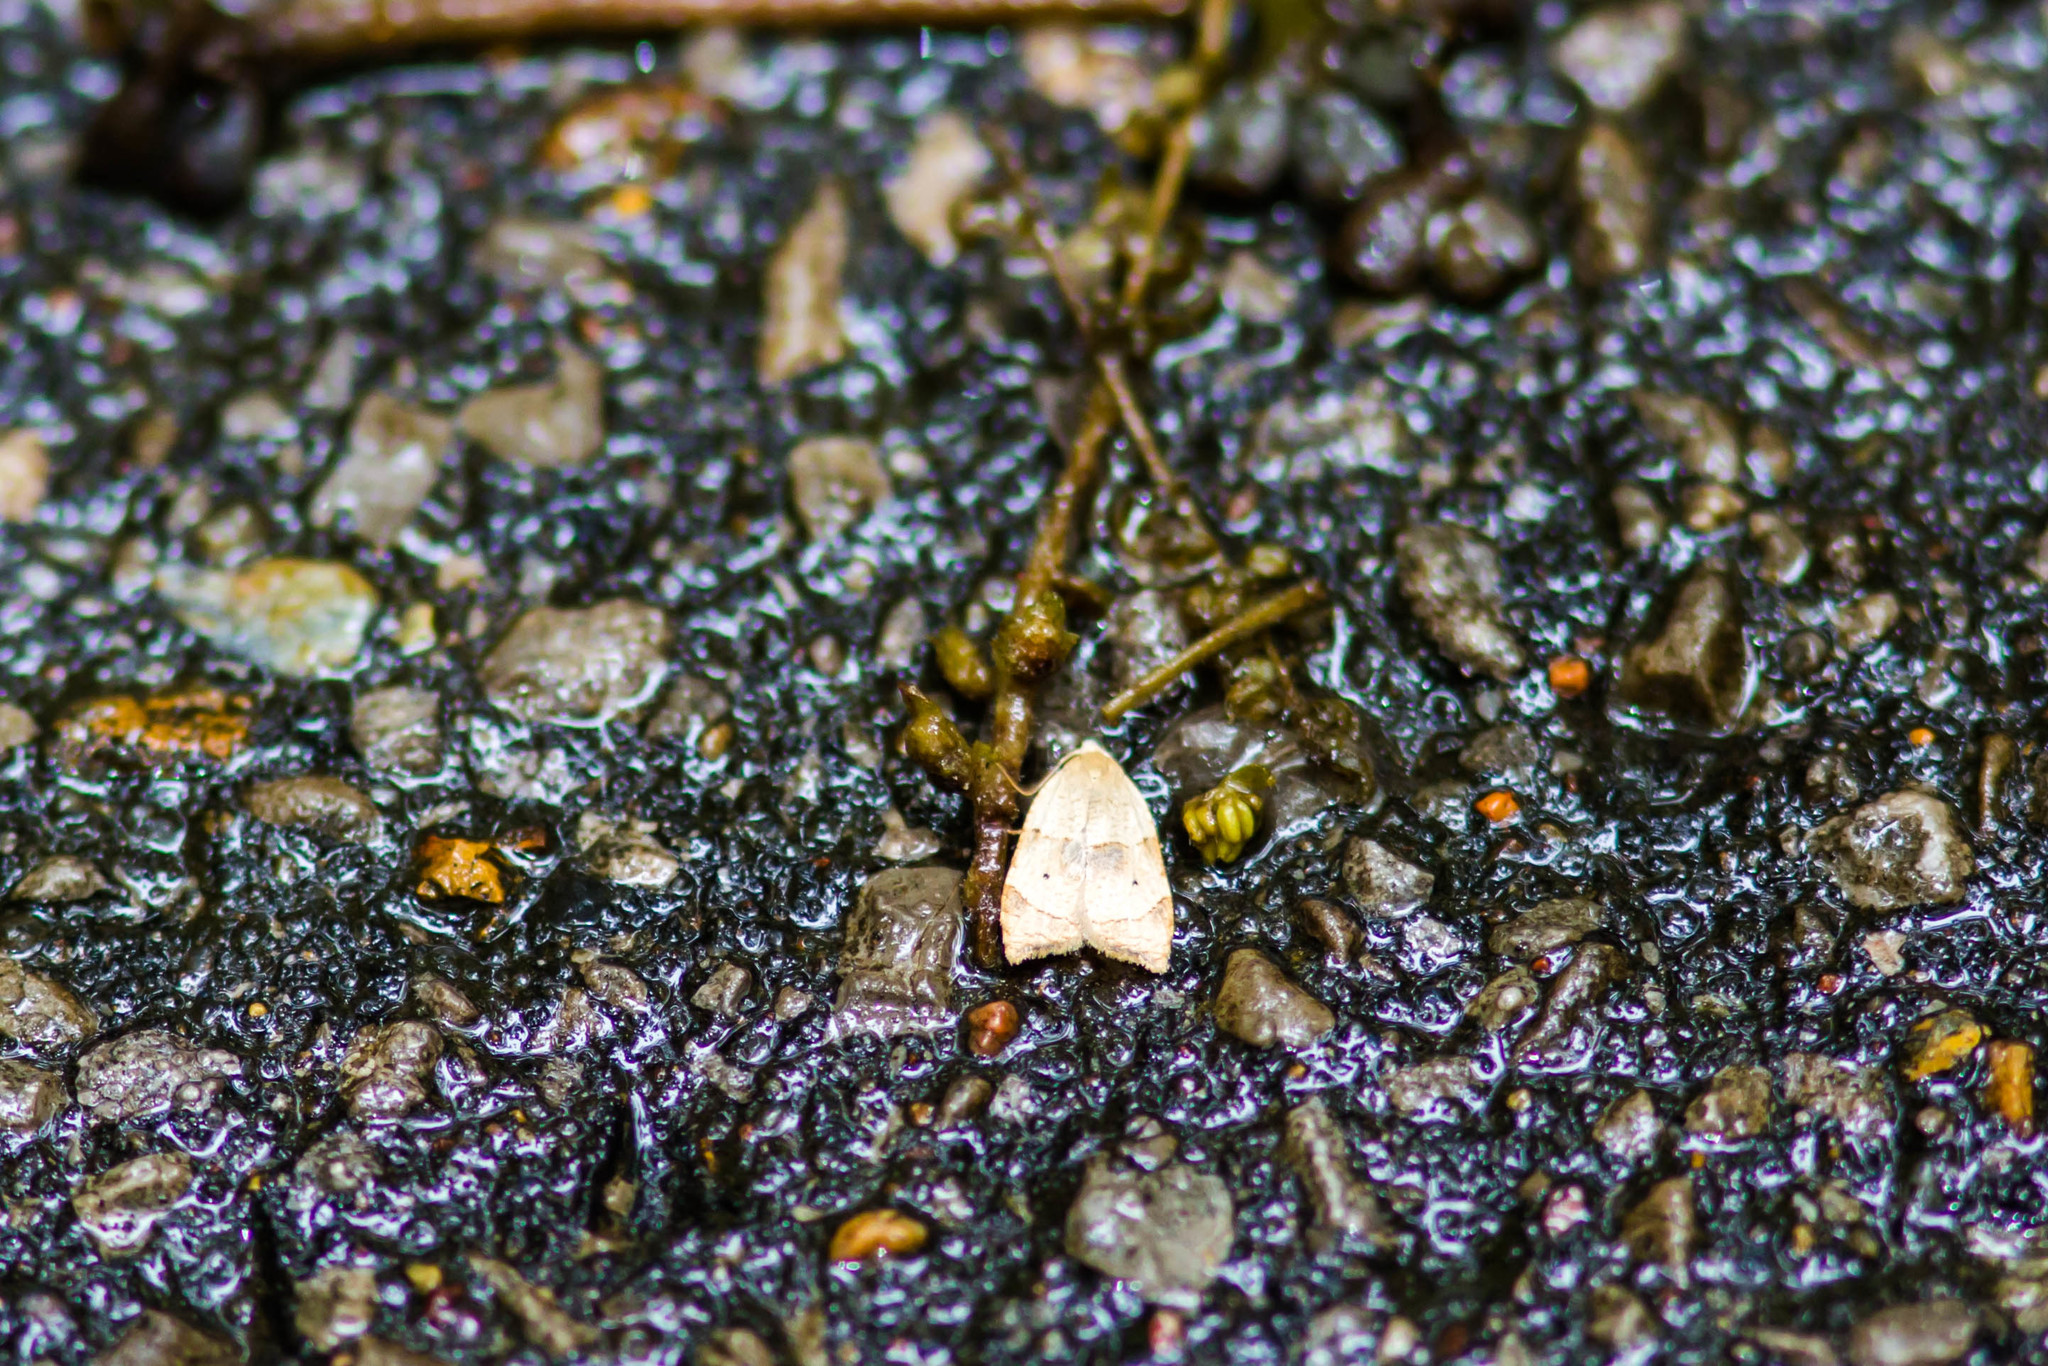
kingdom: Animalia
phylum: Arthropoda
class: Insecta
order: Lepidoptera
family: Tortricidae
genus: Coelostathma
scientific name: Coelostathma discopunctana
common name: Batman moth
